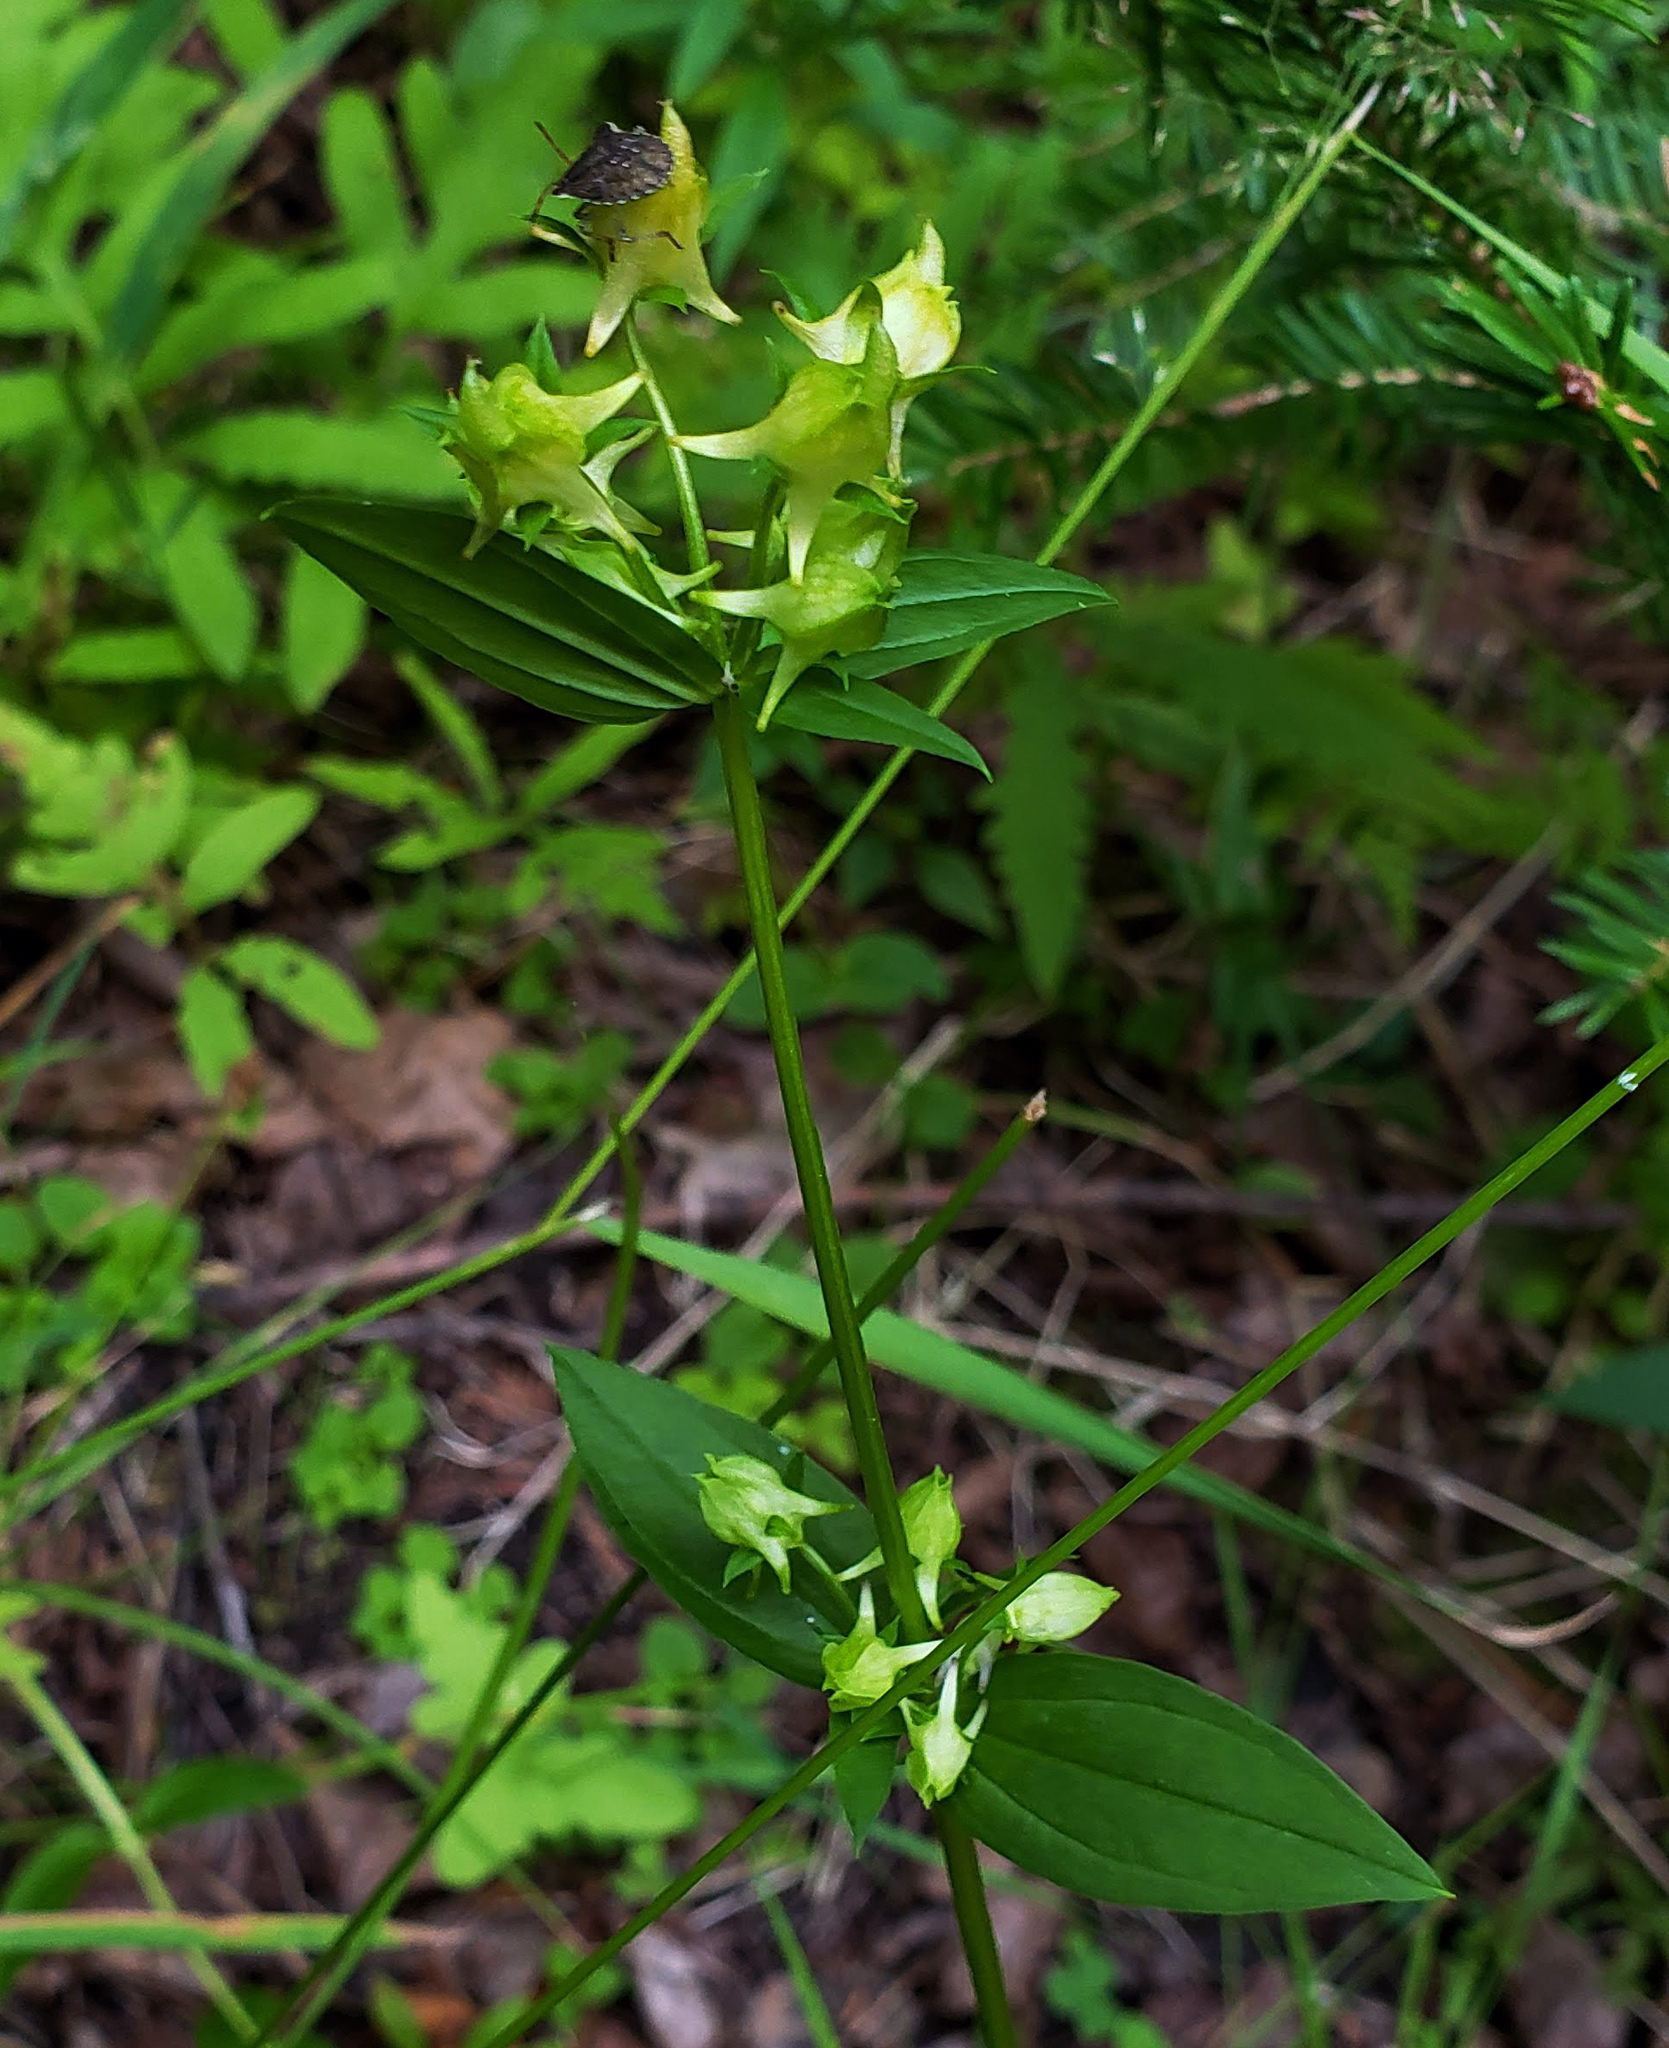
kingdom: Plantae
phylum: Tracheophyta
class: Magnoliopsida
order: Gentianales
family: Gentianaceae
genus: Halenia
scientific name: Halenia deflexa
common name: American spurred gentian
